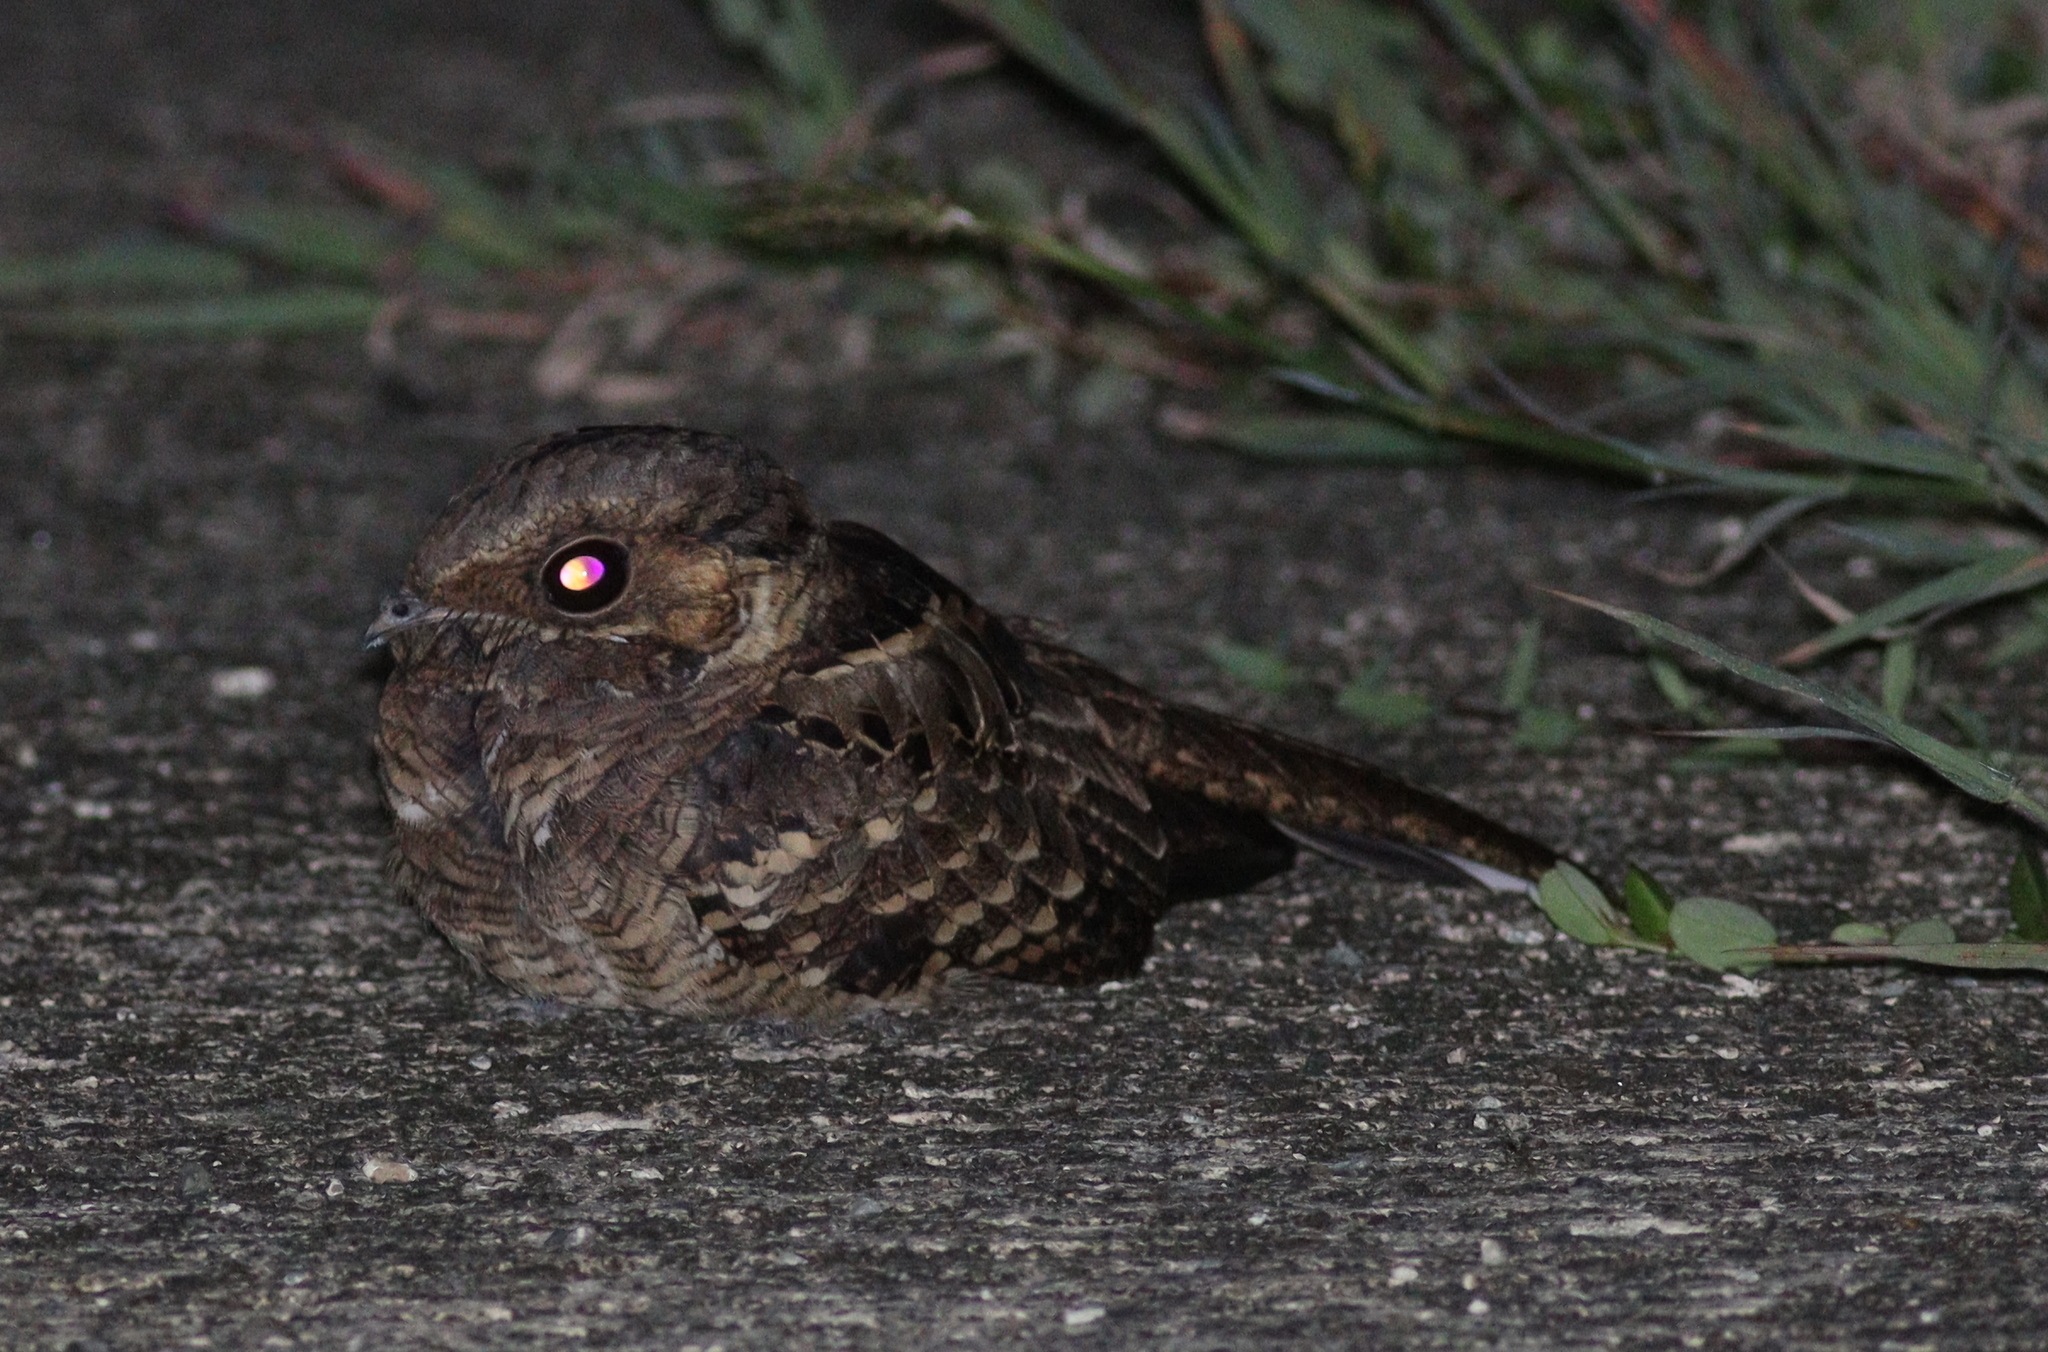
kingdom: Animalia
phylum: Chordata
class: Aves
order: Caprimulgiformes
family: Caprimulgidae
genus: Nyctidromus
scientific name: Nyctidromus albicollis
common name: Pauraque
